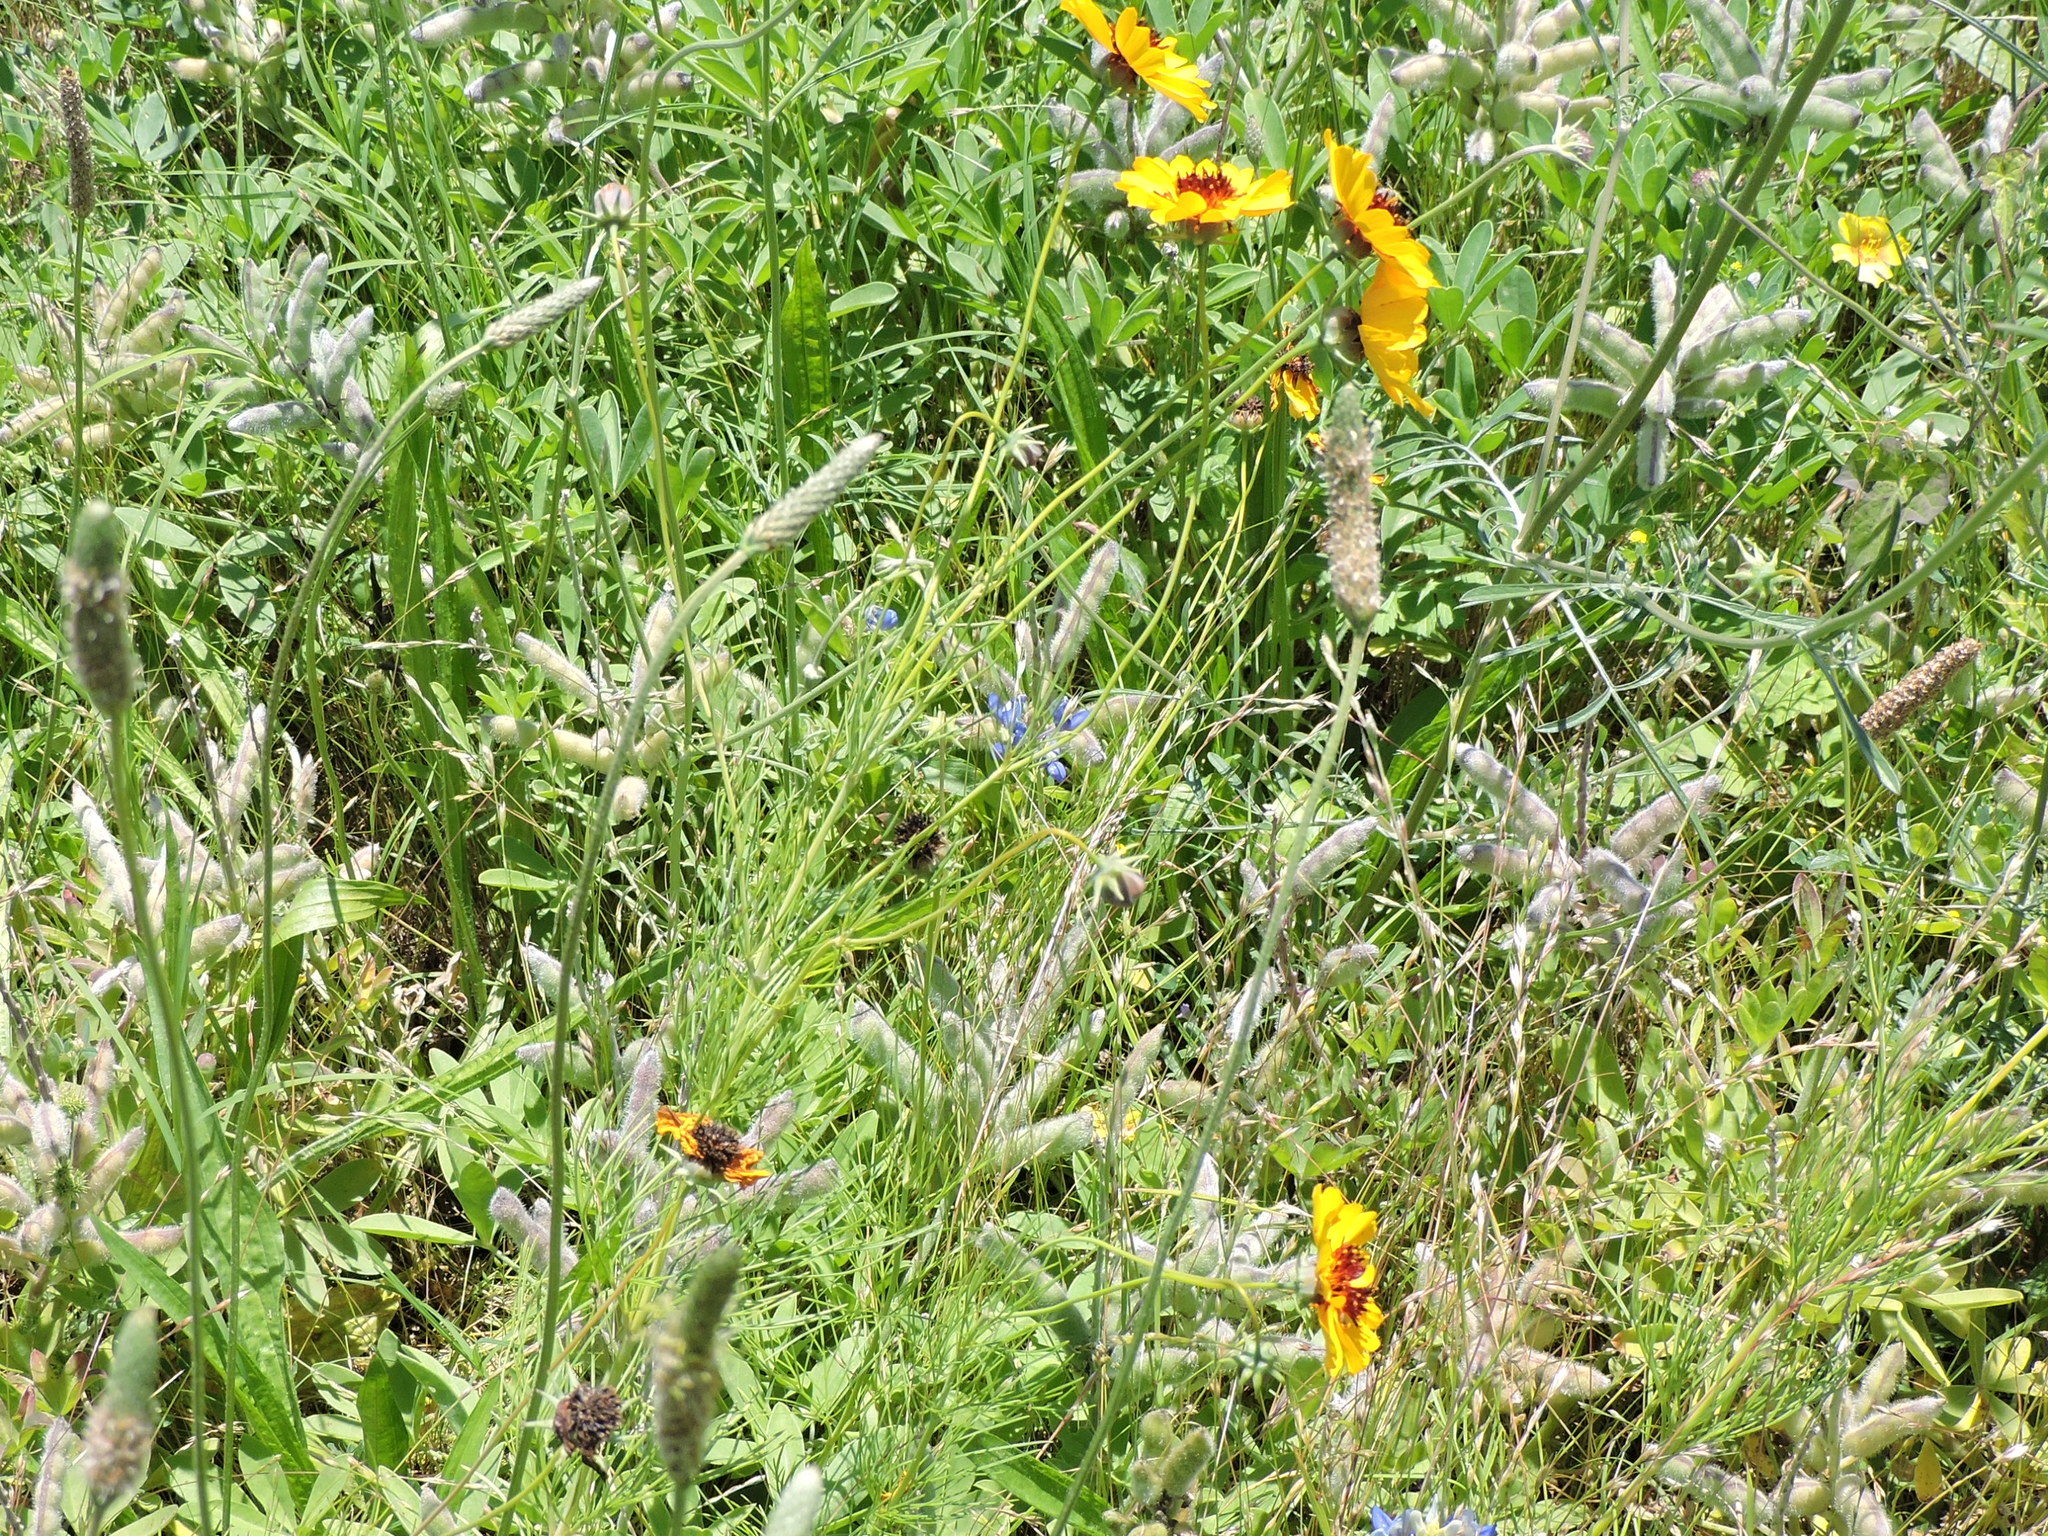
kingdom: Plantae
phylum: Tracheophyta
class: Magnoliopsida
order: Asterales
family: Asteraceae
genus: Thelesperma
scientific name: Thelesperma filifolium
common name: Stiff greenthread
